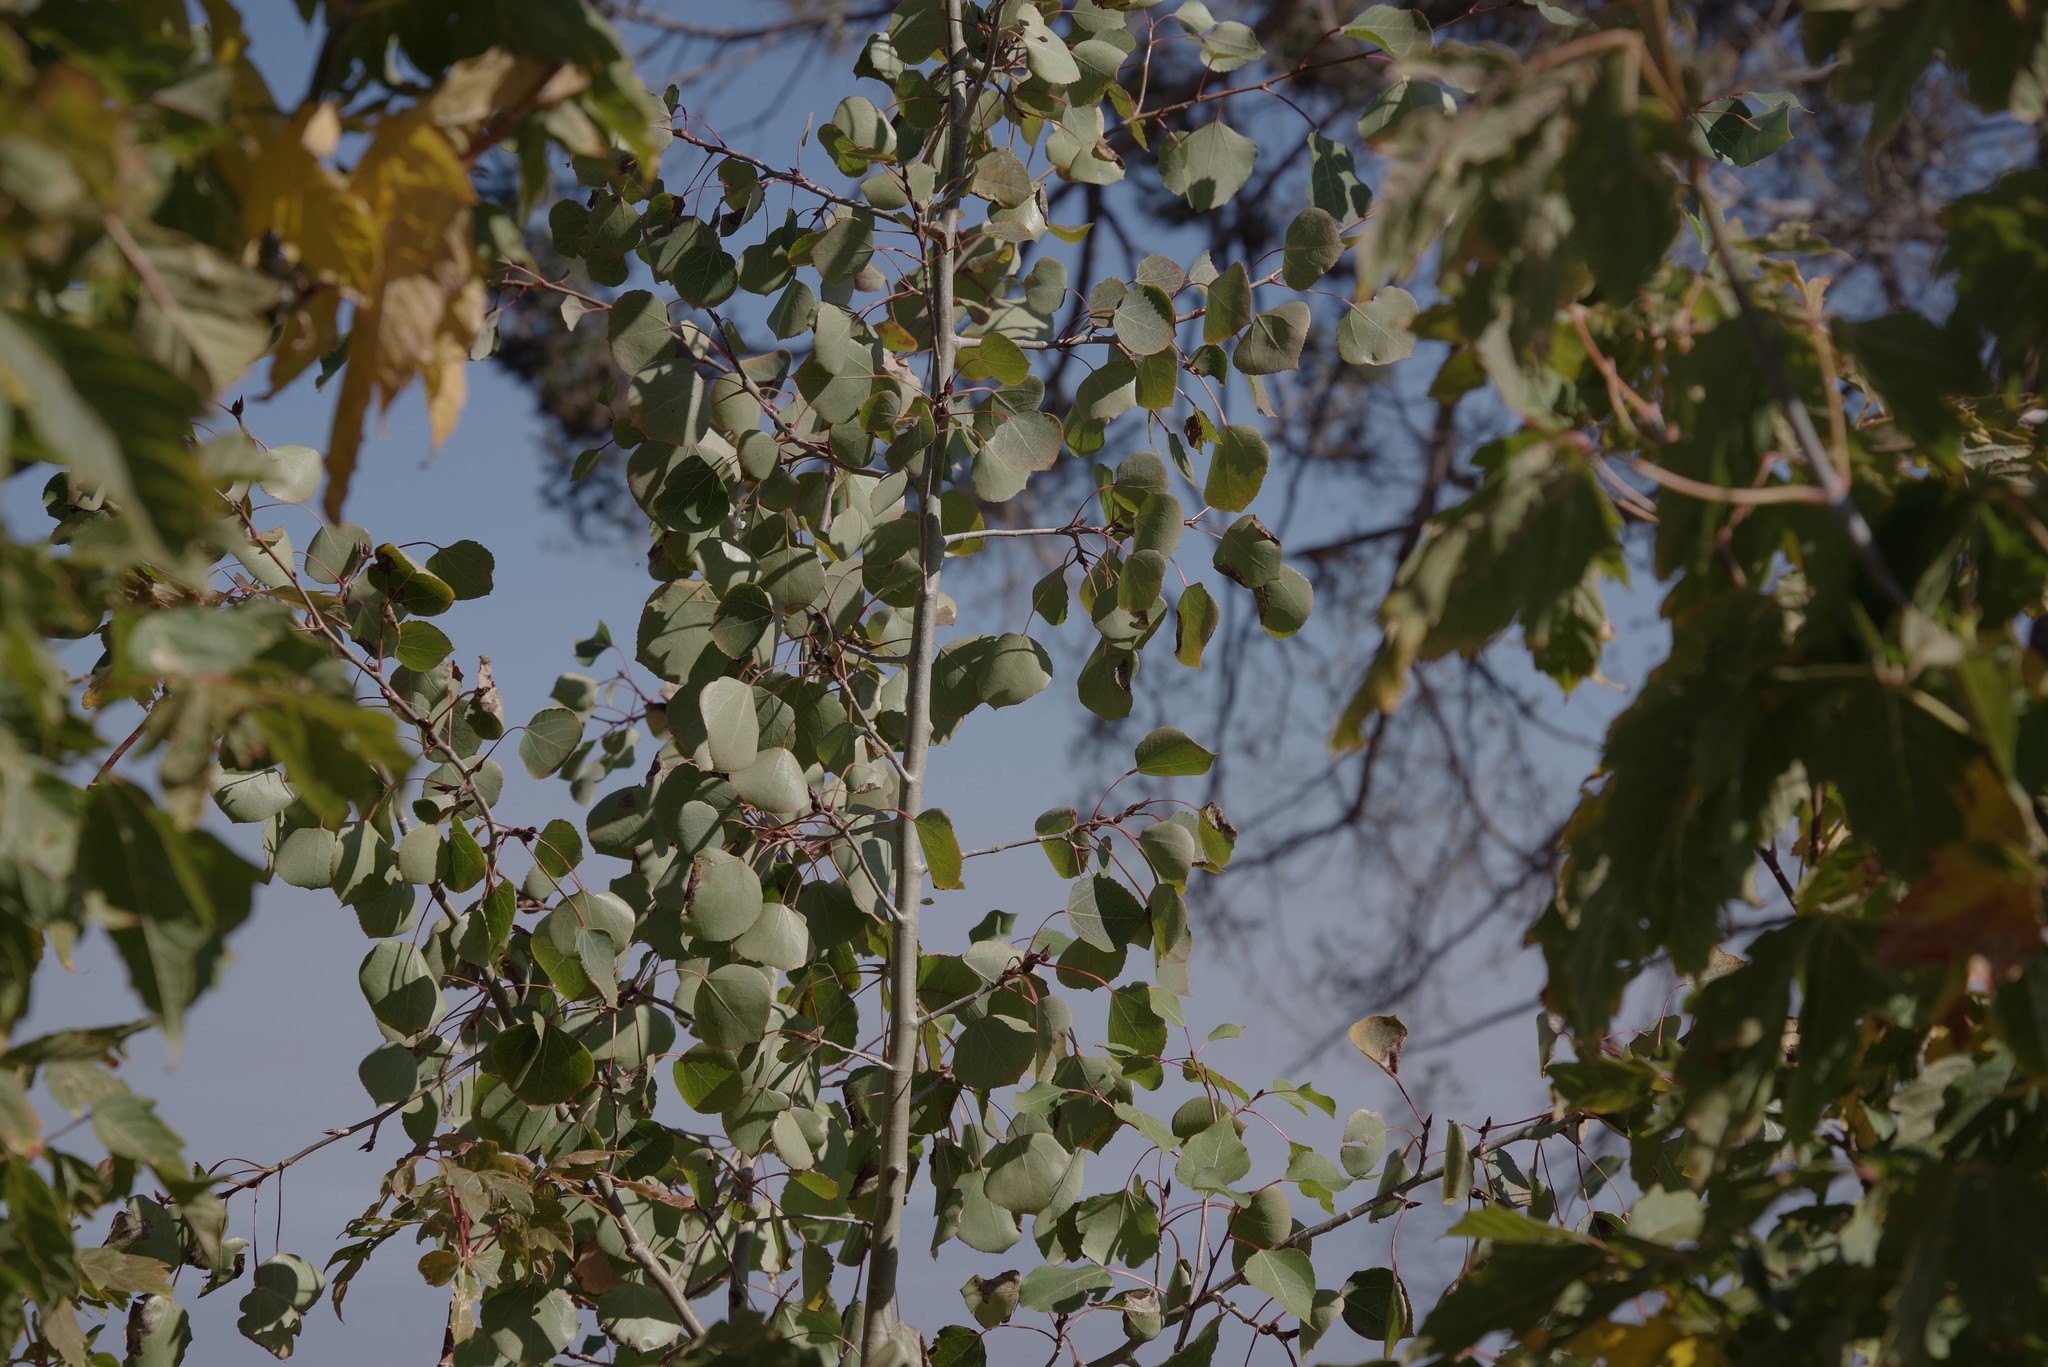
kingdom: Plantae
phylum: Tracheophyta
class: Magnoliopsida
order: Malpighiales
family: Salicaceae
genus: Populus
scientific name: Populus tremuloides
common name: Quaking aspen
